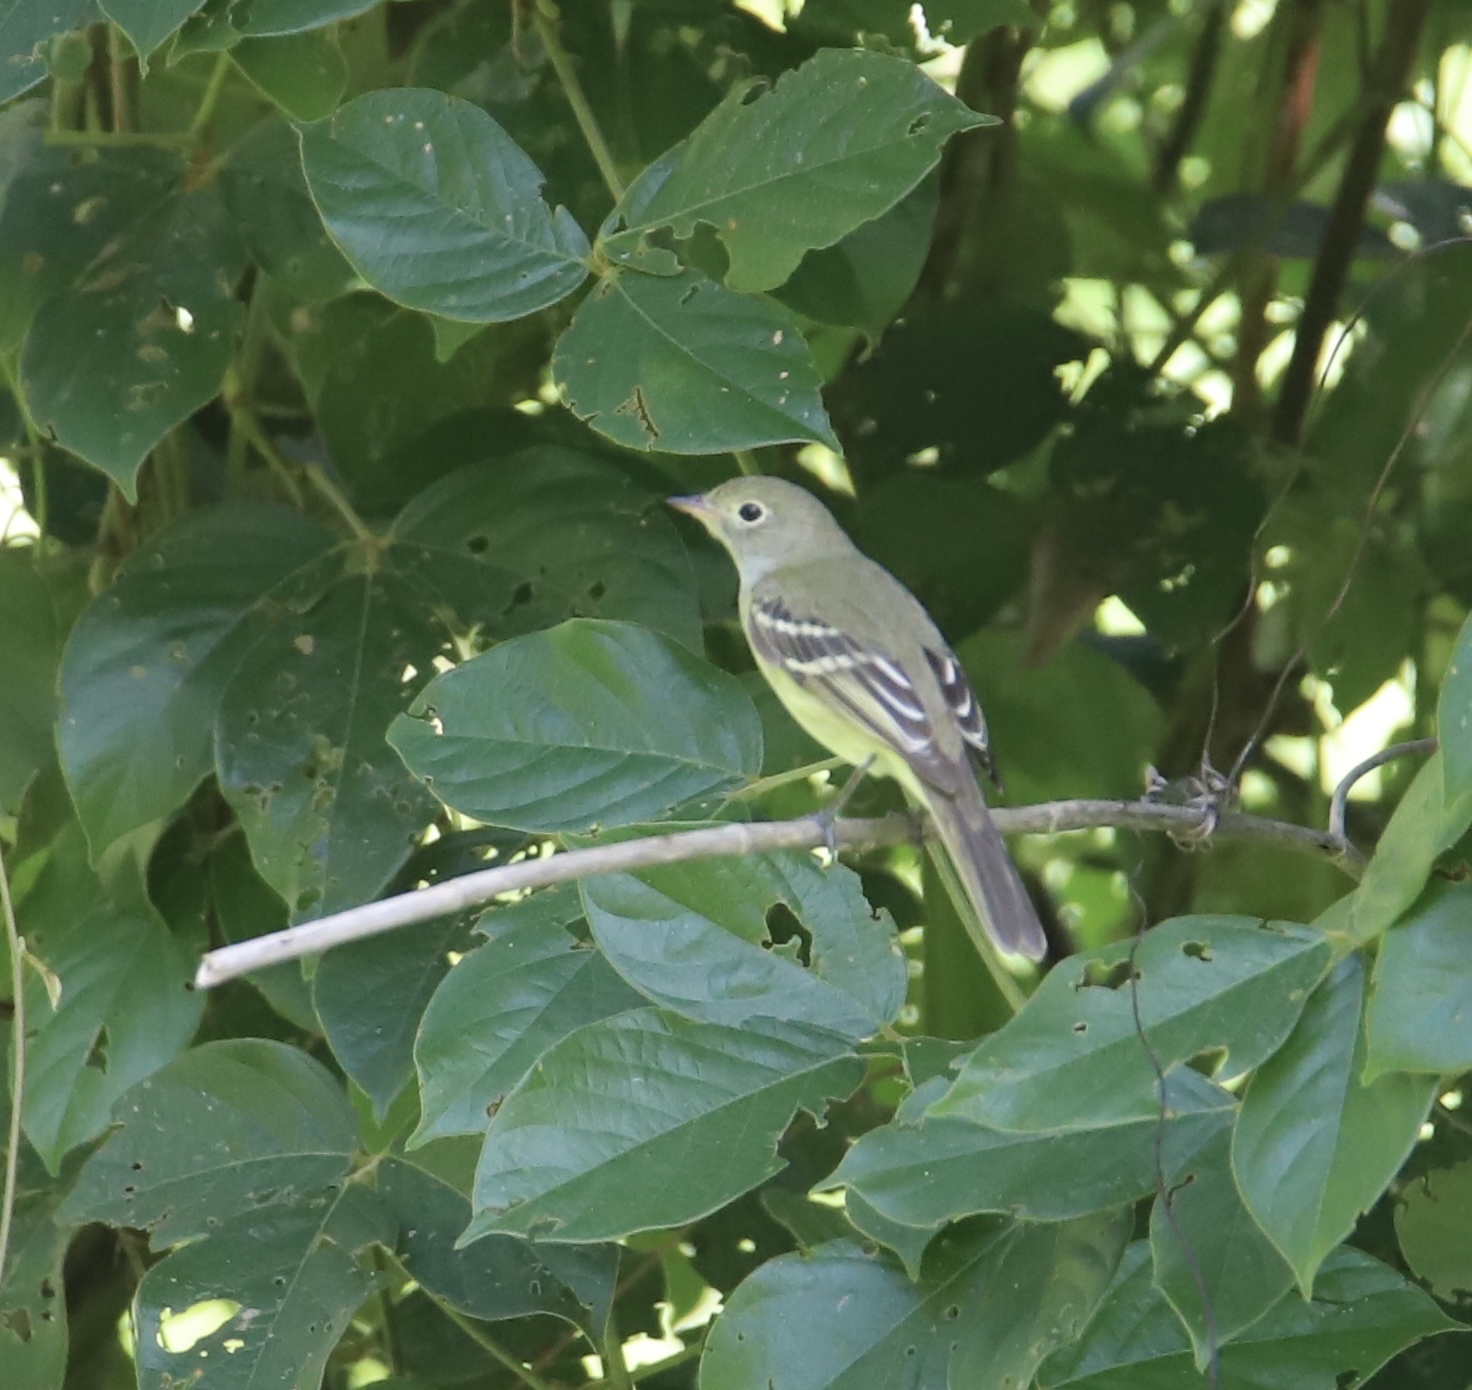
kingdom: Animalia
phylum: Chordata
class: Aves
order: Passeriformes
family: Tyrannidae
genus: Elaenia
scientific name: Elaenia parvirostris
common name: Small-billed elaenia
